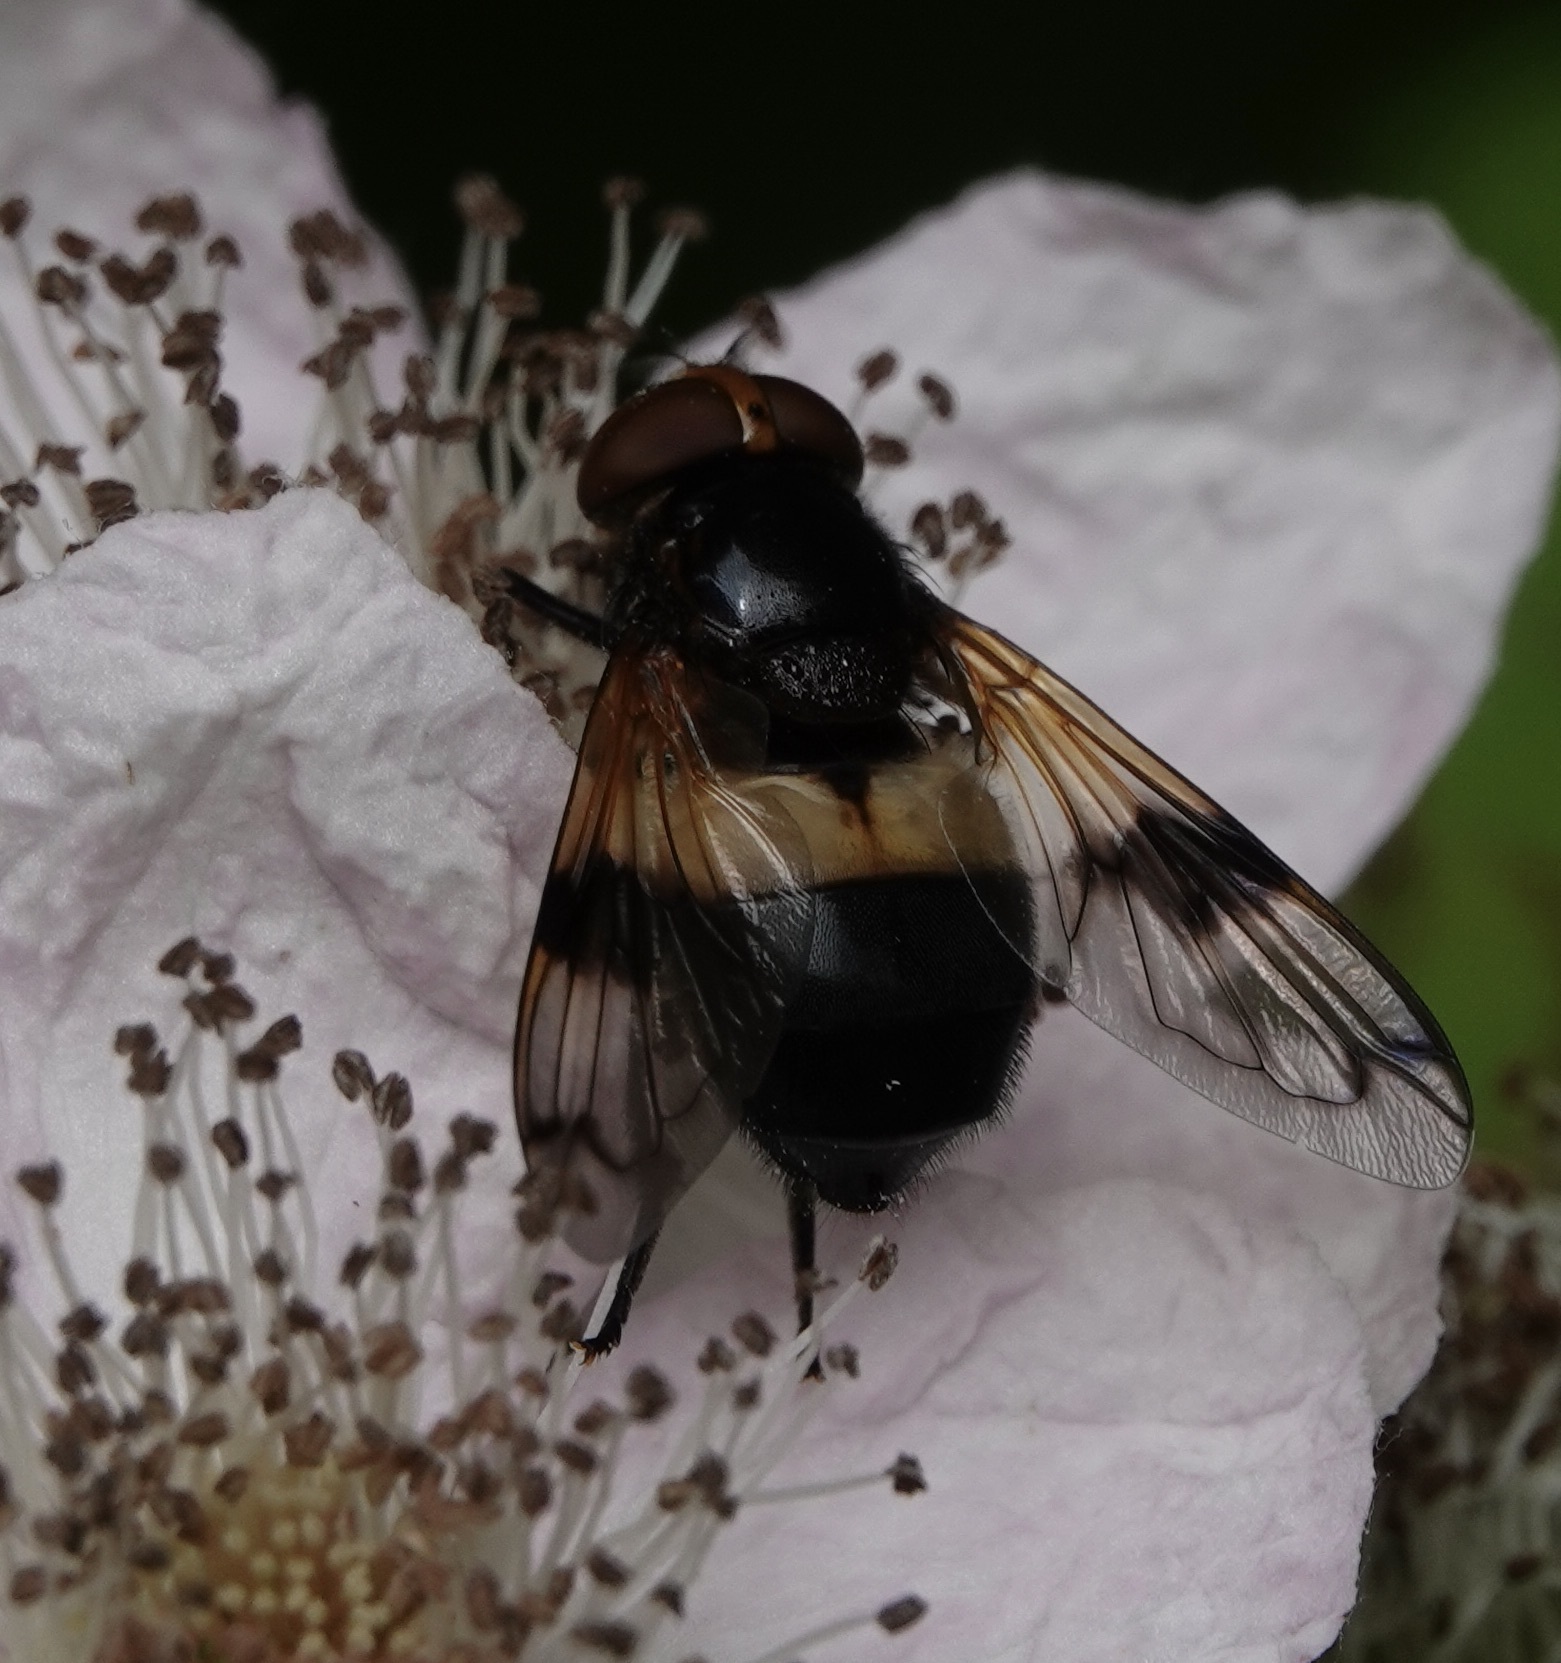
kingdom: Animalia
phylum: Arthropoda
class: Insecta
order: Diptera
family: Syrphidae
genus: Volucella
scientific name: Volucella pellucens
